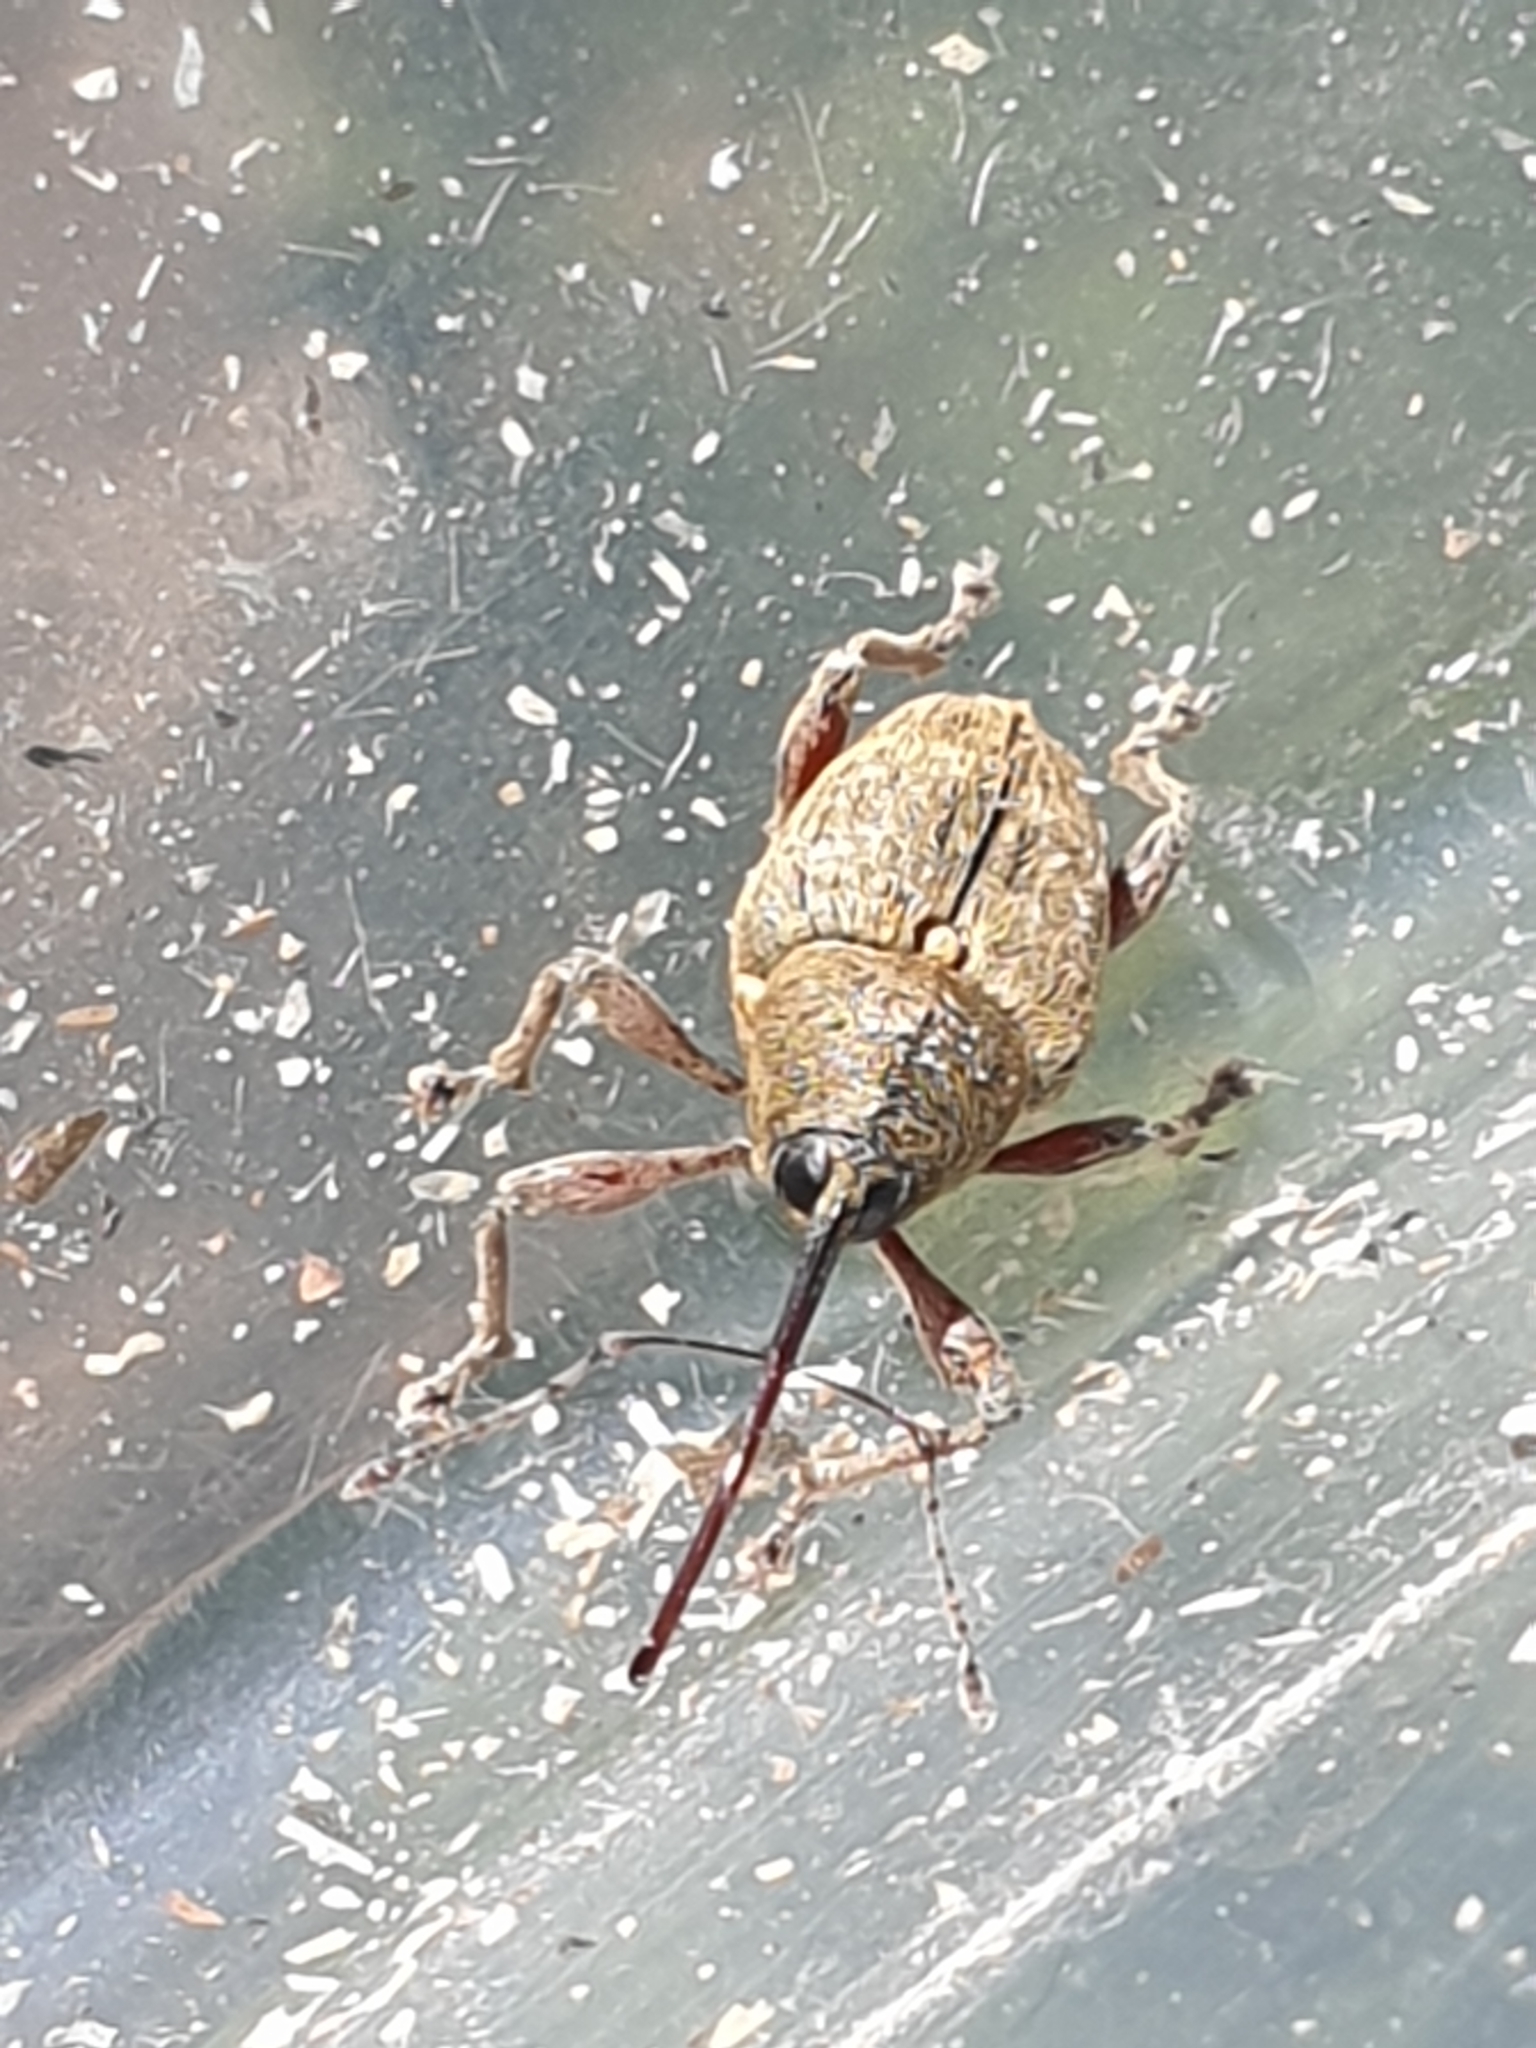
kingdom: Animalia
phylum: Arthropoda
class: Insecta
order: Coleoptera
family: Curculionidae
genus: Curculio
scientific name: Curculio glandium
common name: Acorn weevil
